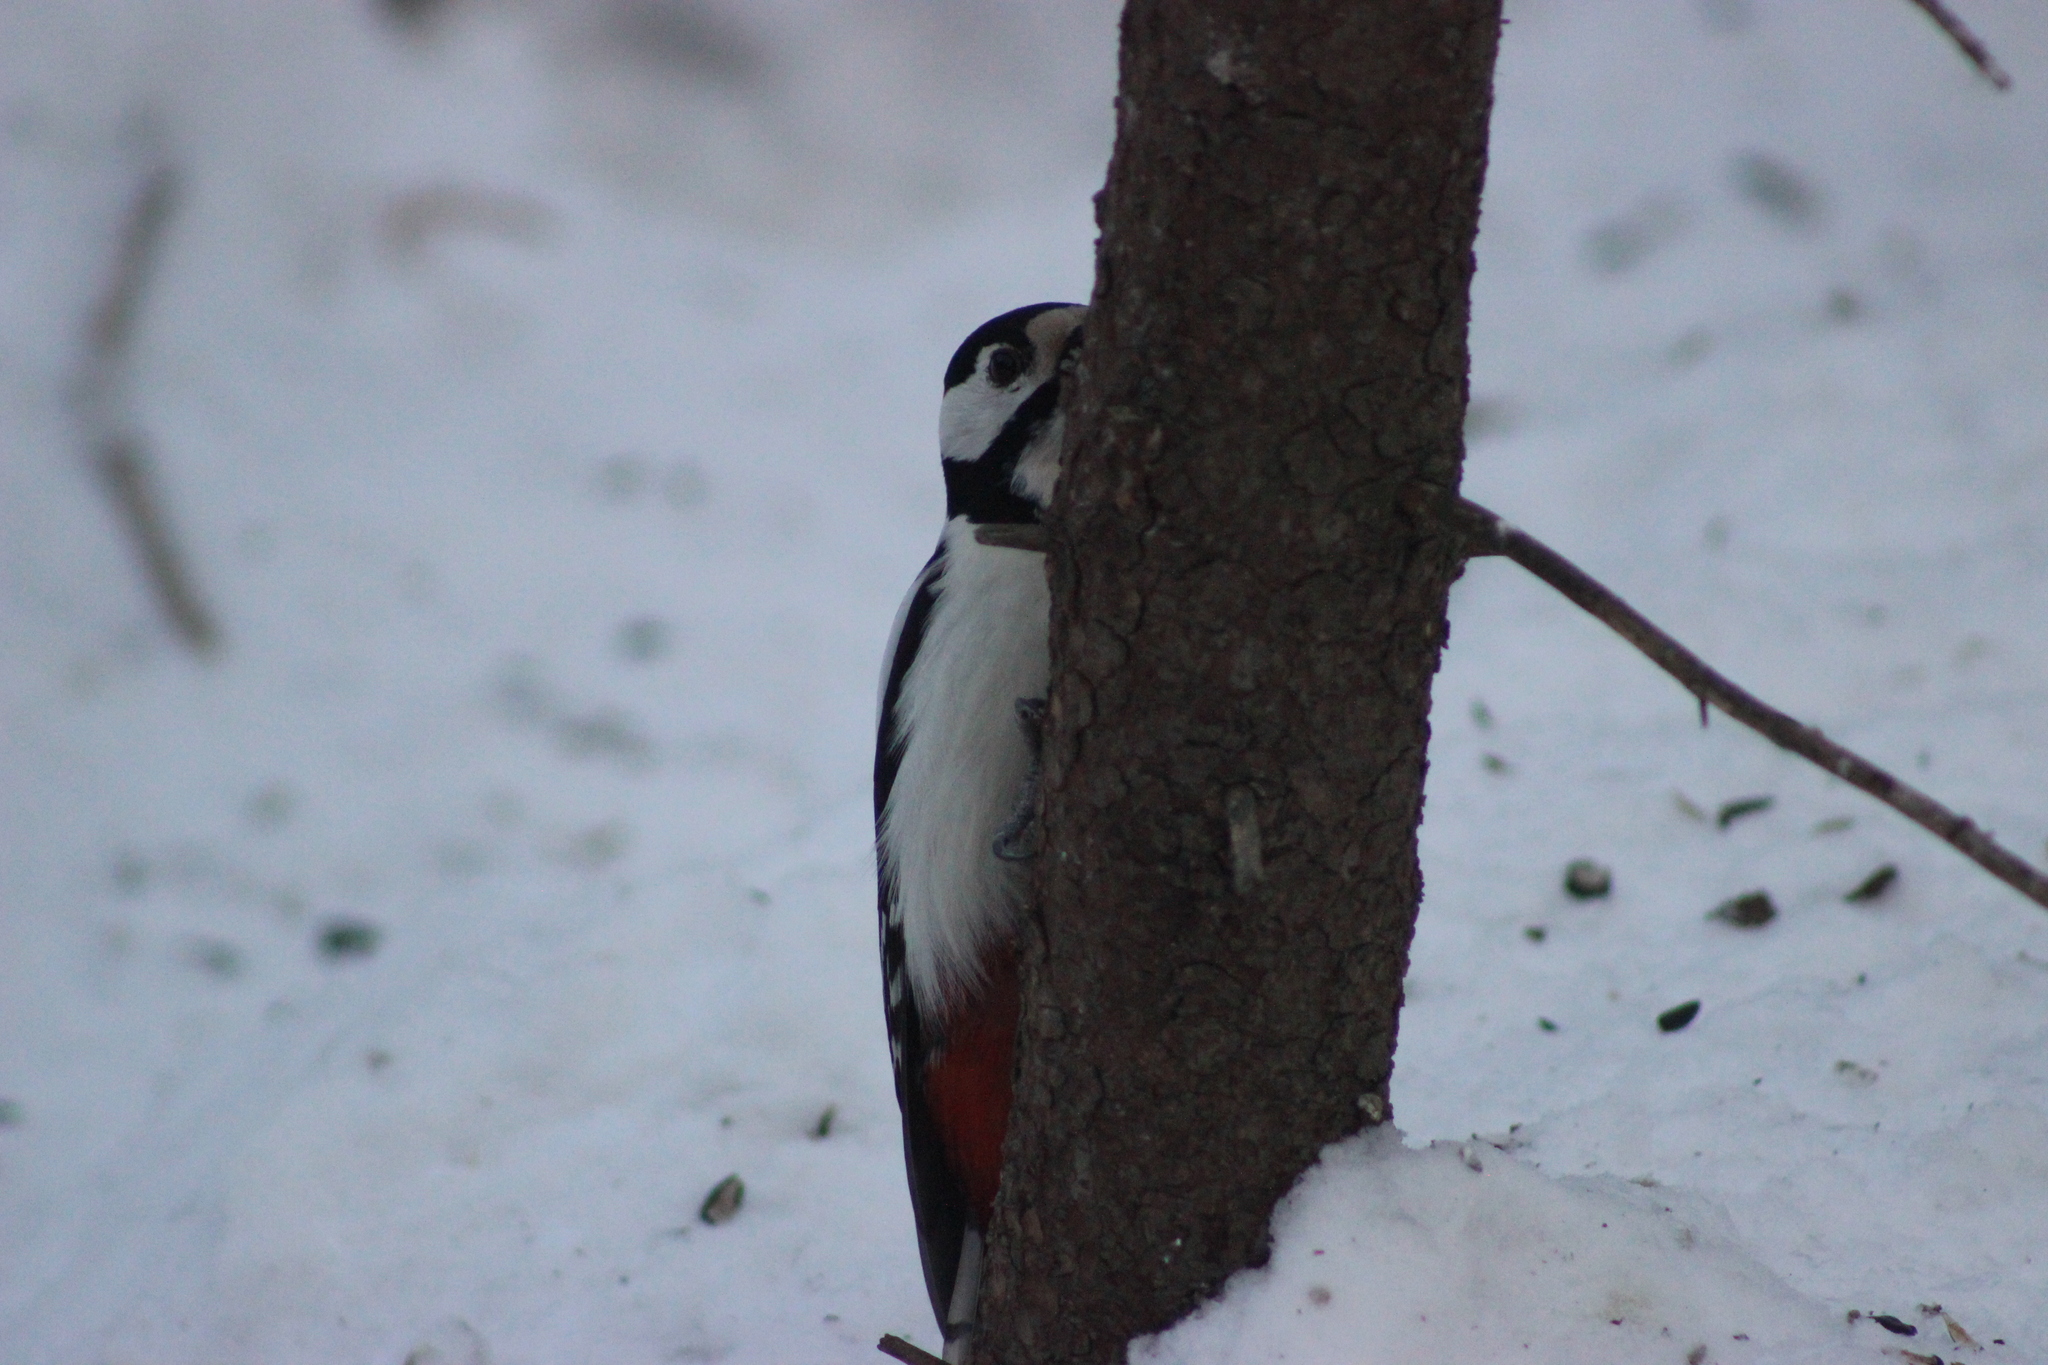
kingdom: Animalia
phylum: Chordata
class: Aves
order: Piciformes
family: Picidae
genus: Dendrocopos
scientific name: Dendrocopos leucotos
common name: White-backed woodpecker
